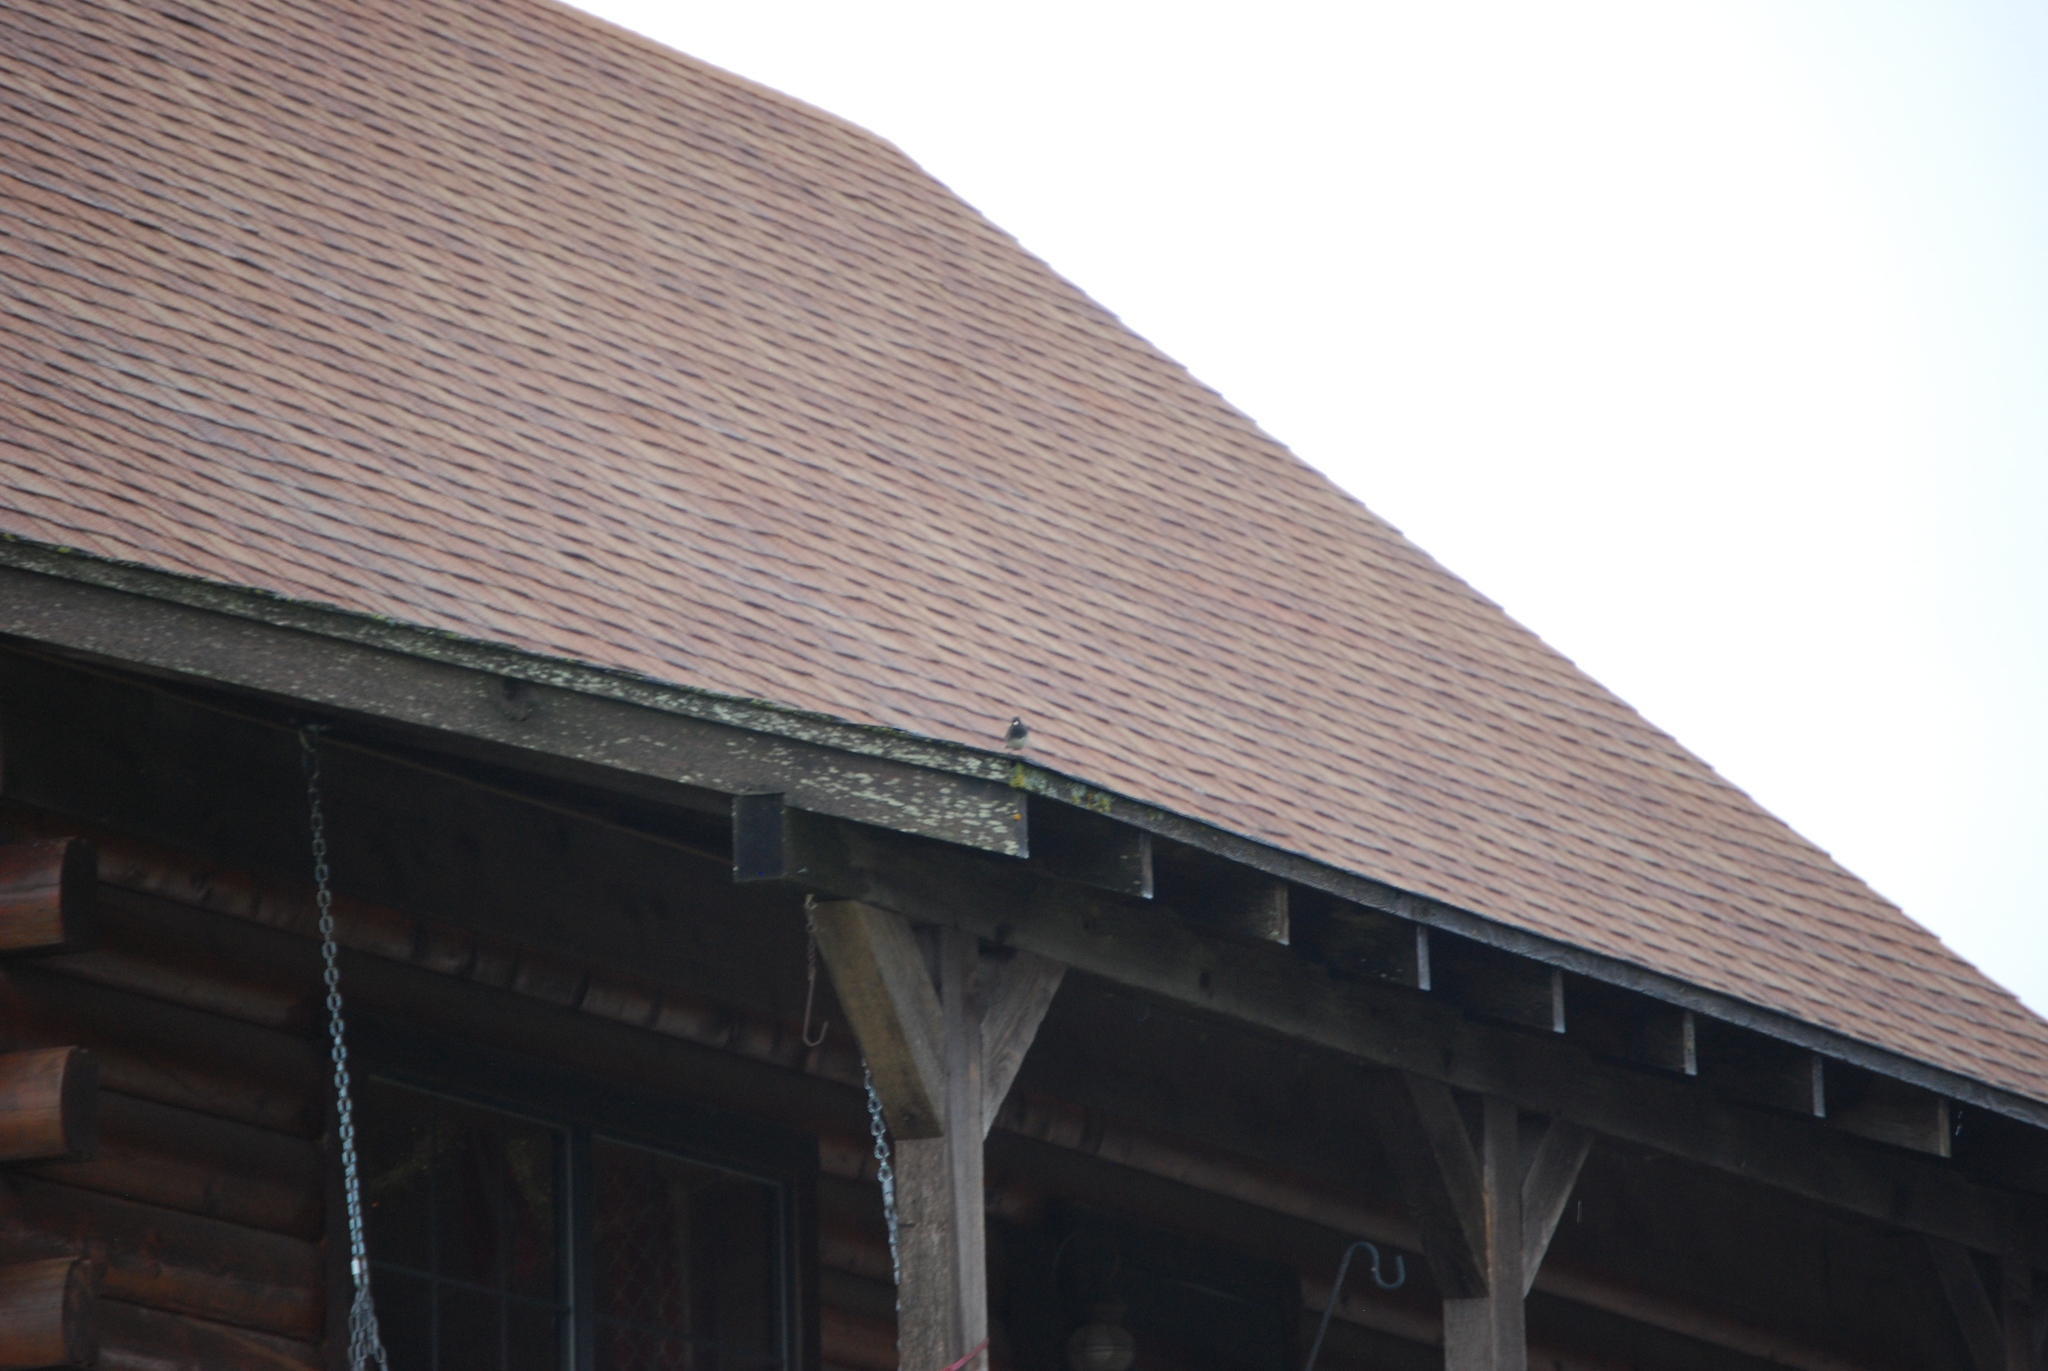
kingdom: Animalia
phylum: Chordata
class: Aves
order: Passeriformes
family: Passerellidae
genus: Junco
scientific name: Junco hyemalis
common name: Dark-eyed junco
